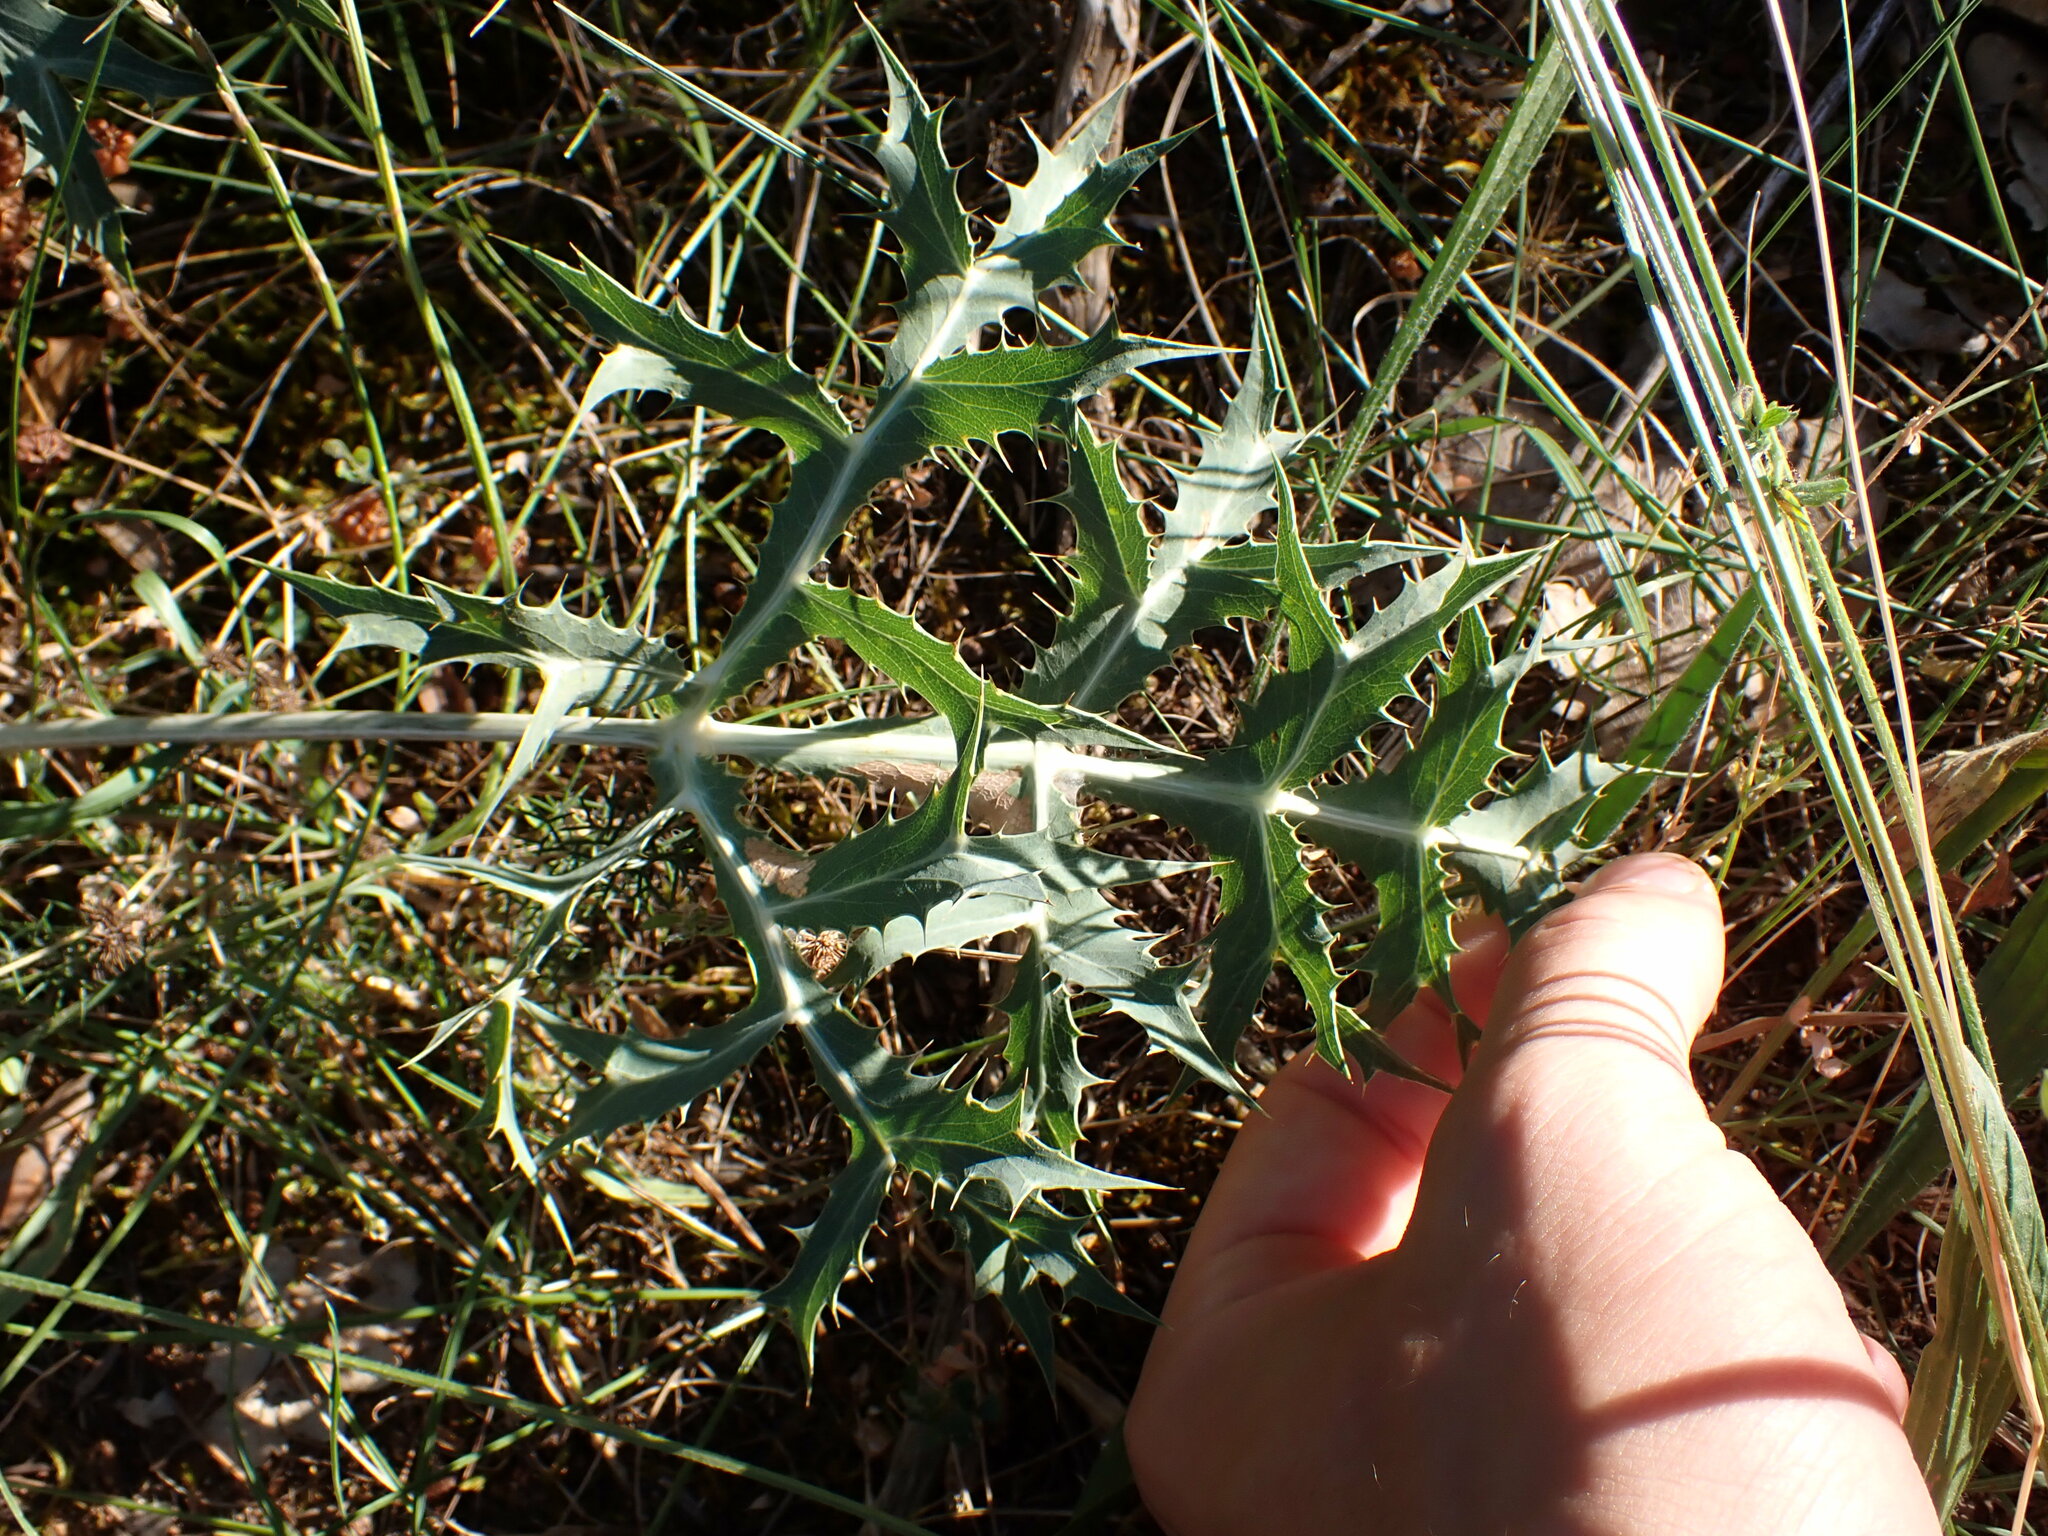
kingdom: Plantae
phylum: Tracheophyta
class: Magnoliopsida
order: Apiales
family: Apiaceae
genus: Eryngium
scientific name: Eryngium campestre
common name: Field eryngo
